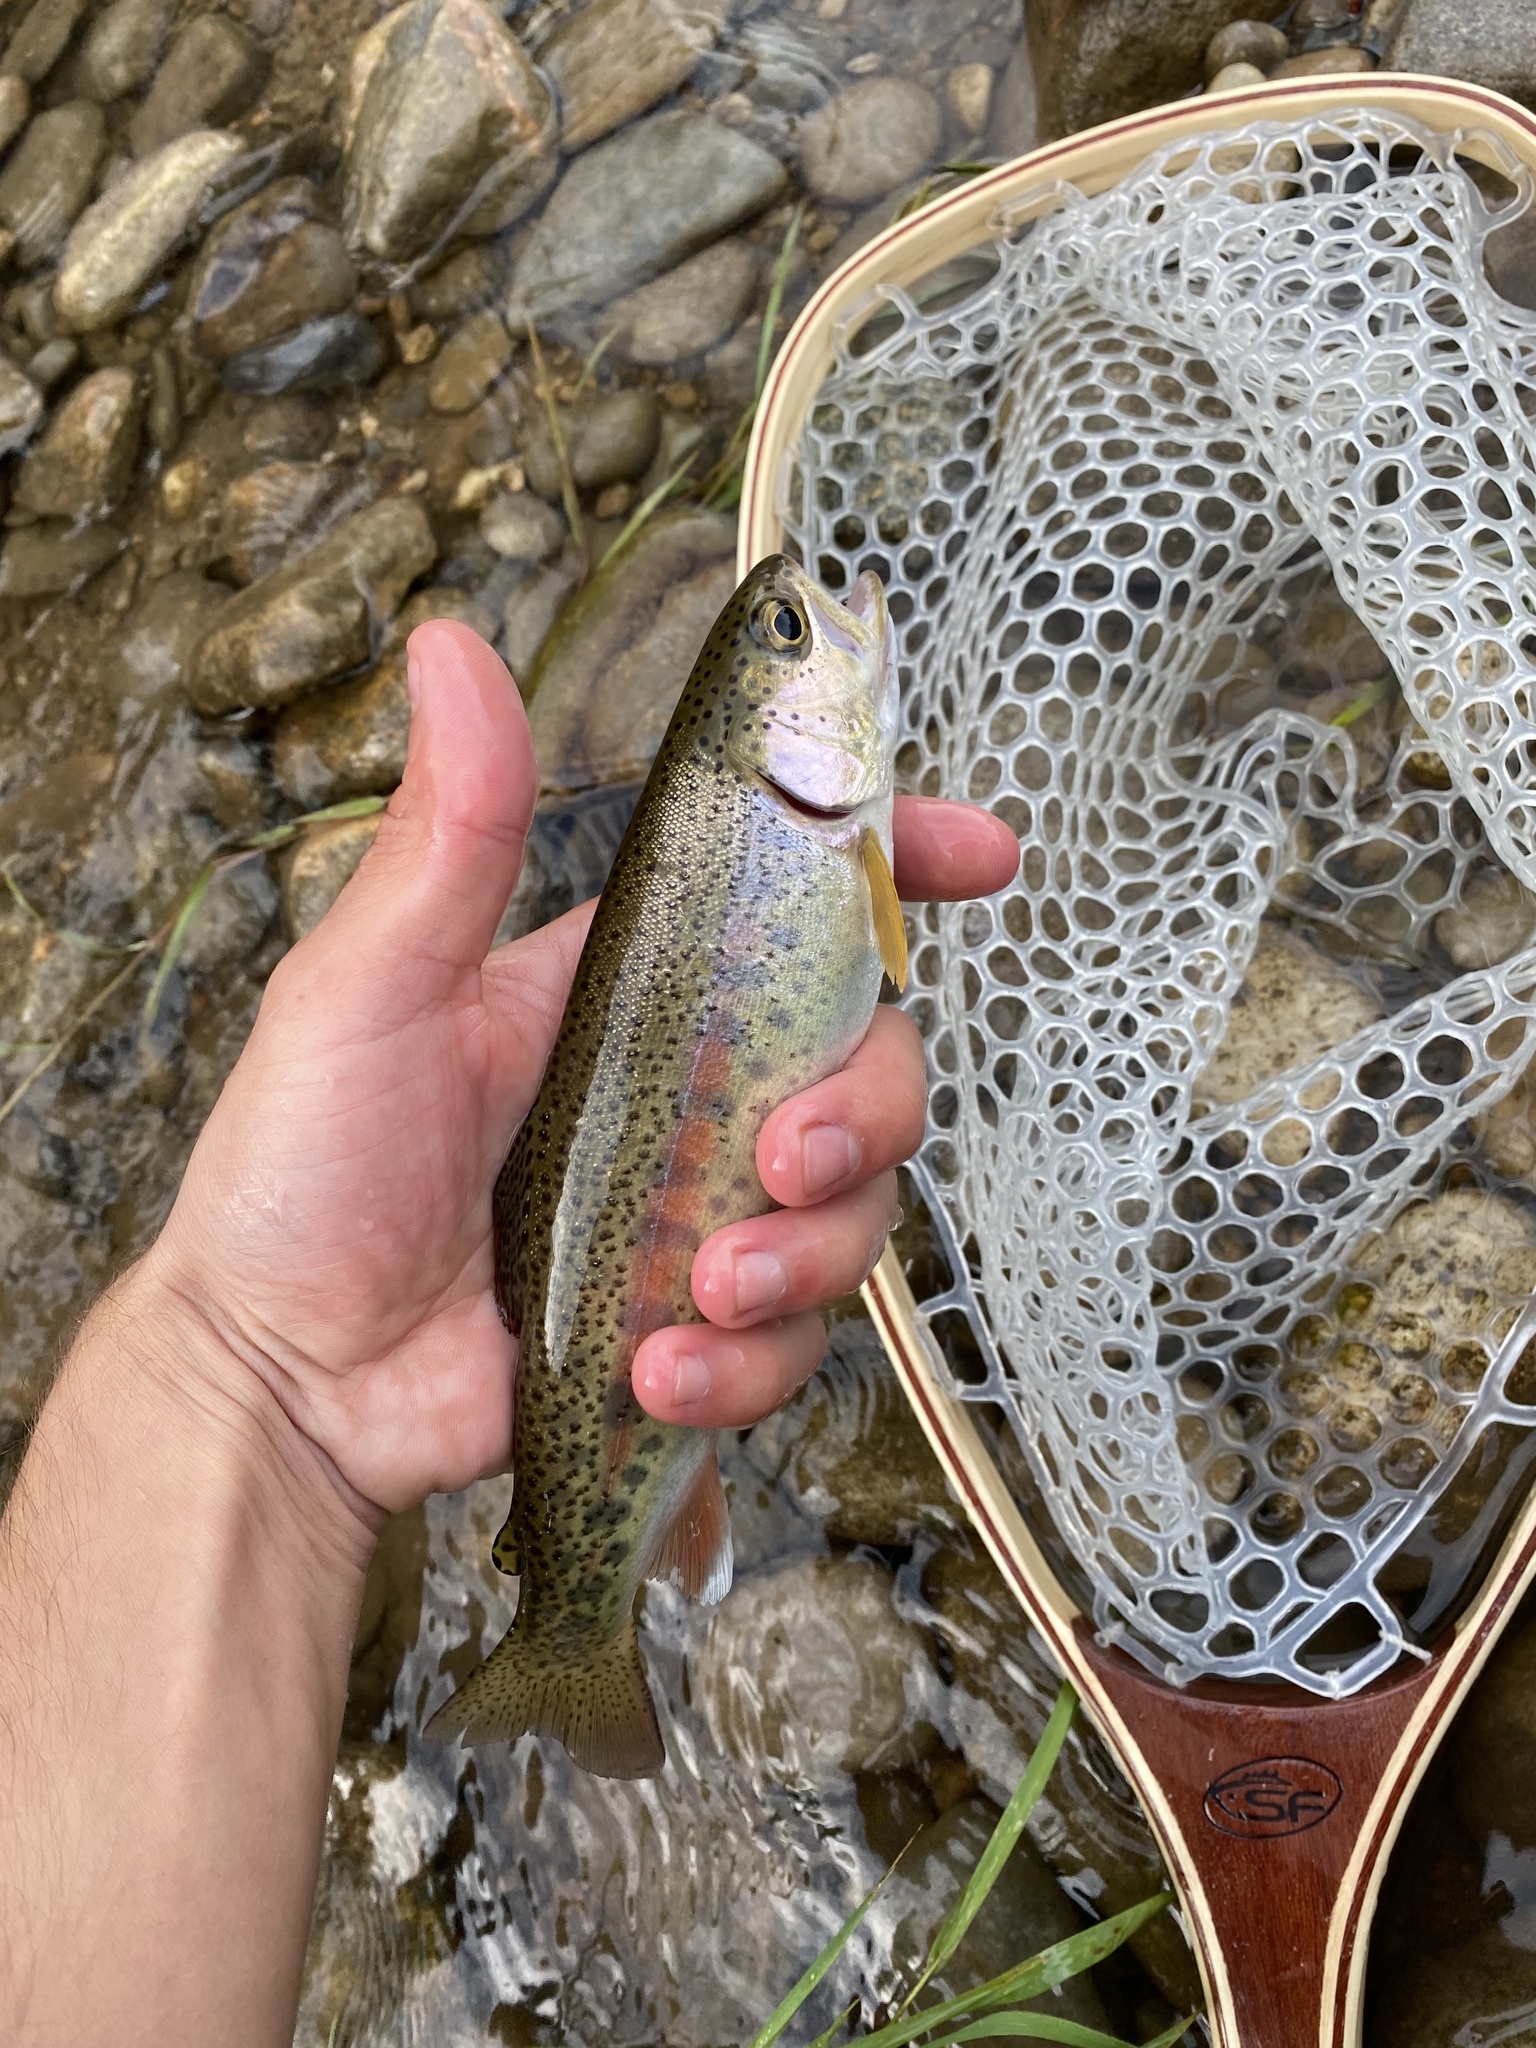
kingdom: Animalia
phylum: Chordata
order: Salmoniformes
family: Salmonidae
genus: Oncorhynchus
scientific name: Oncorhynchus mykiss
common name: Rainbow trout
